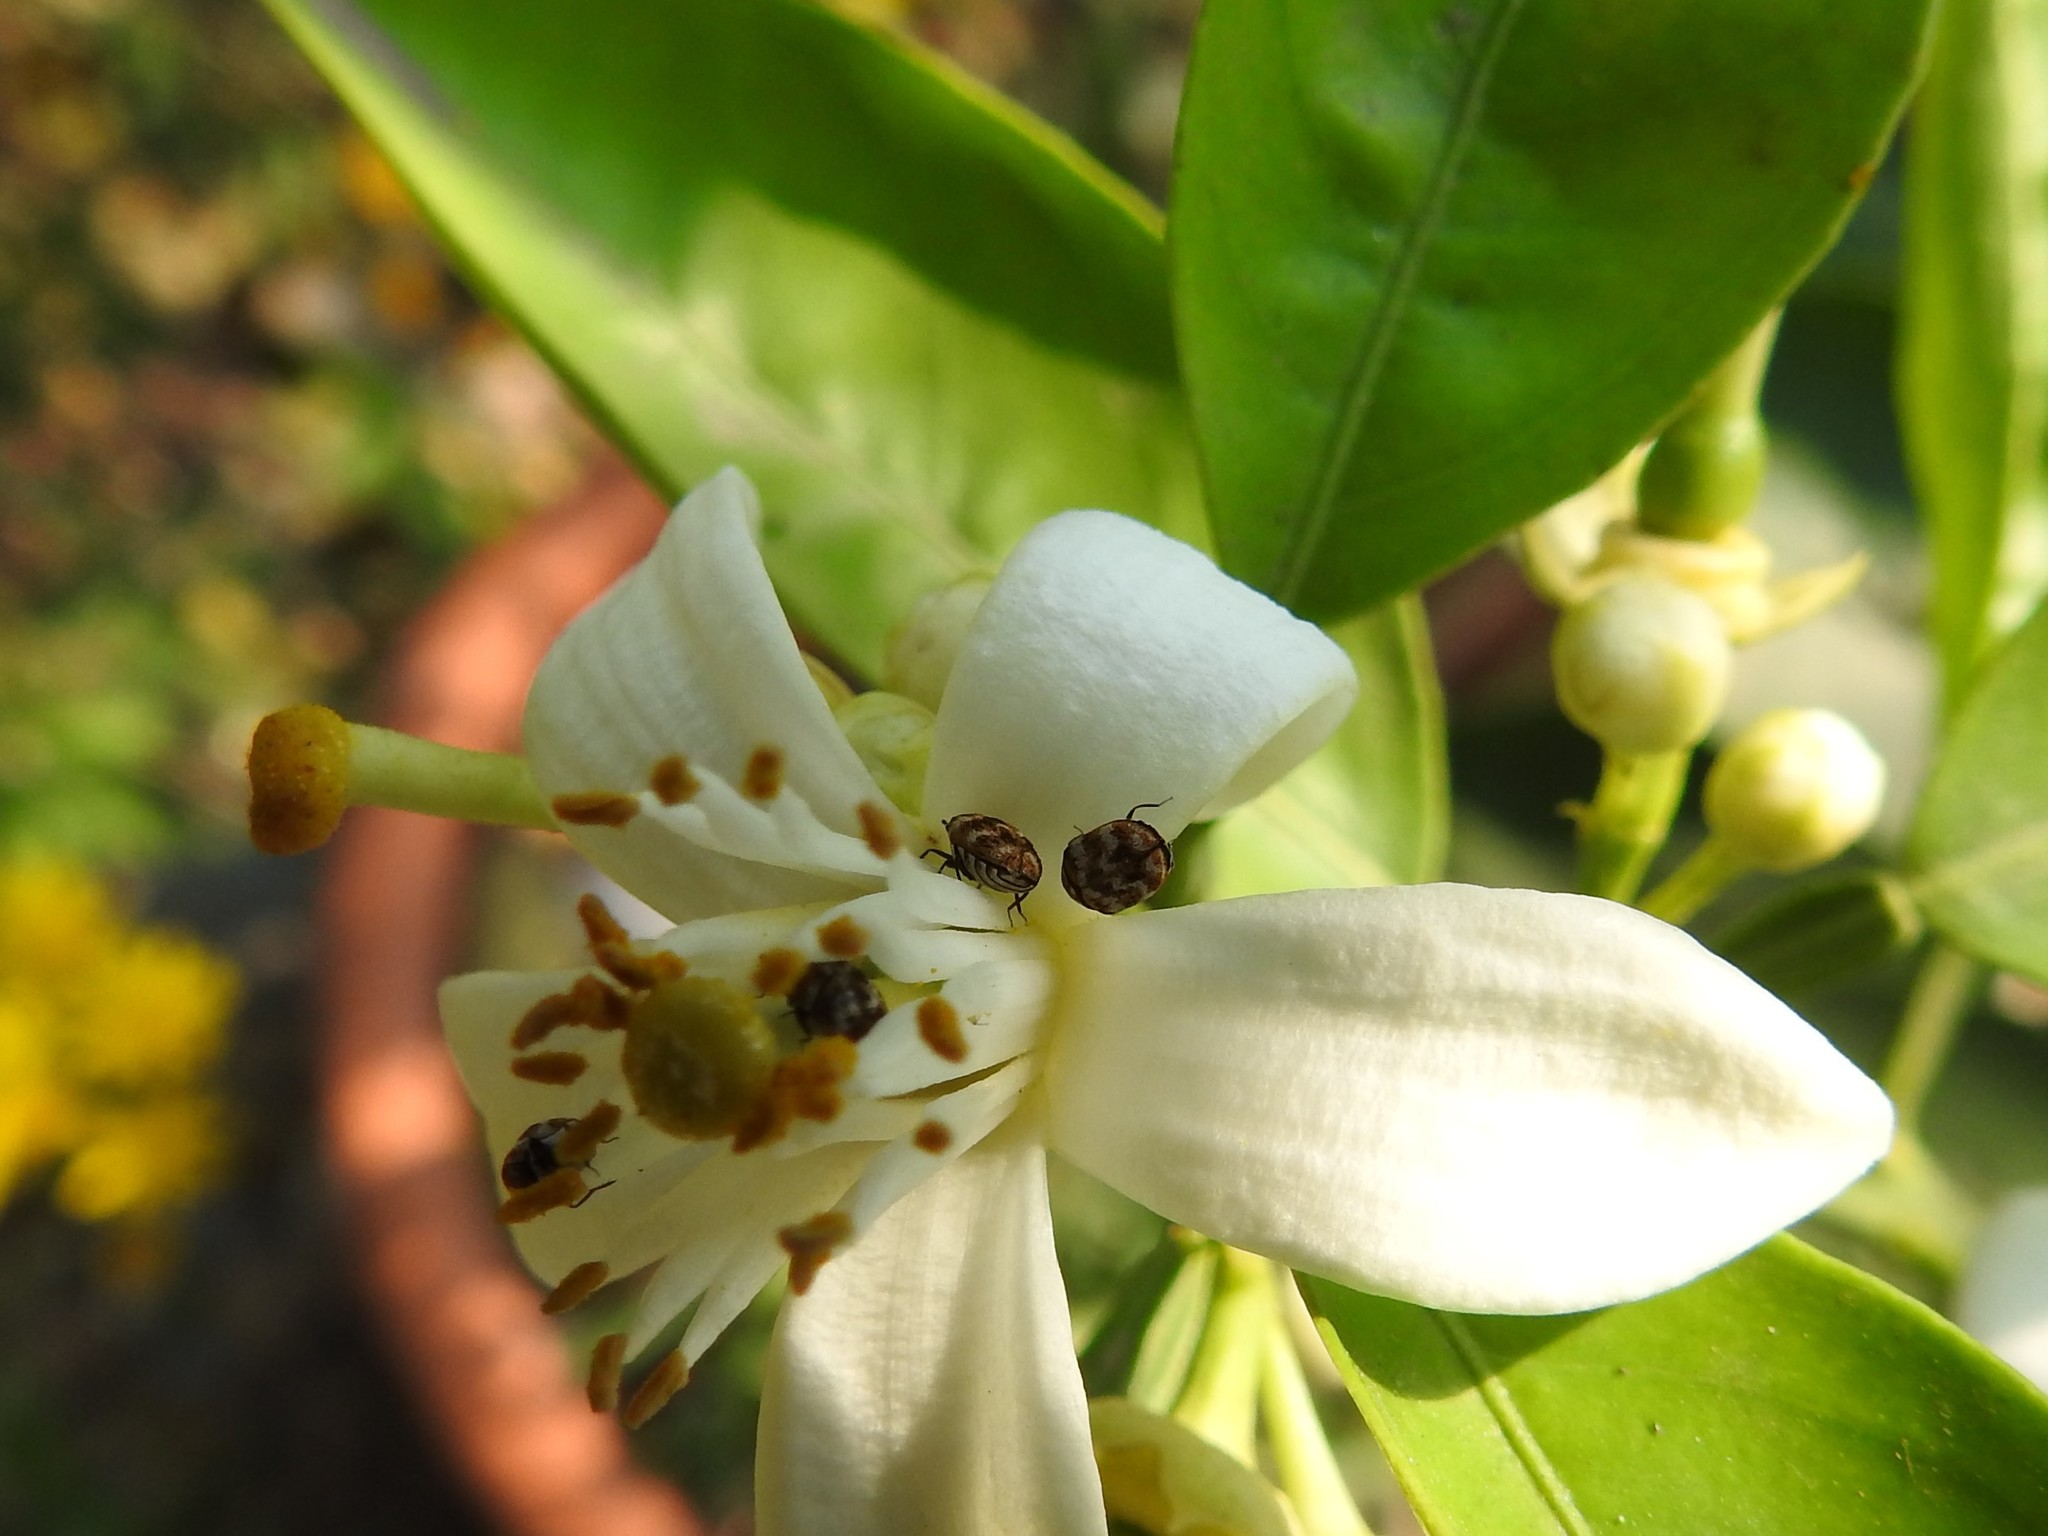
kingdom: Animalia
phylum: Arthropoda
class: Insecta
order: Coleoptera
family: Dermestidae
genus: Anthrenus
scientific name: Anthrenus verbasci
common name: Varied carpet beetle
